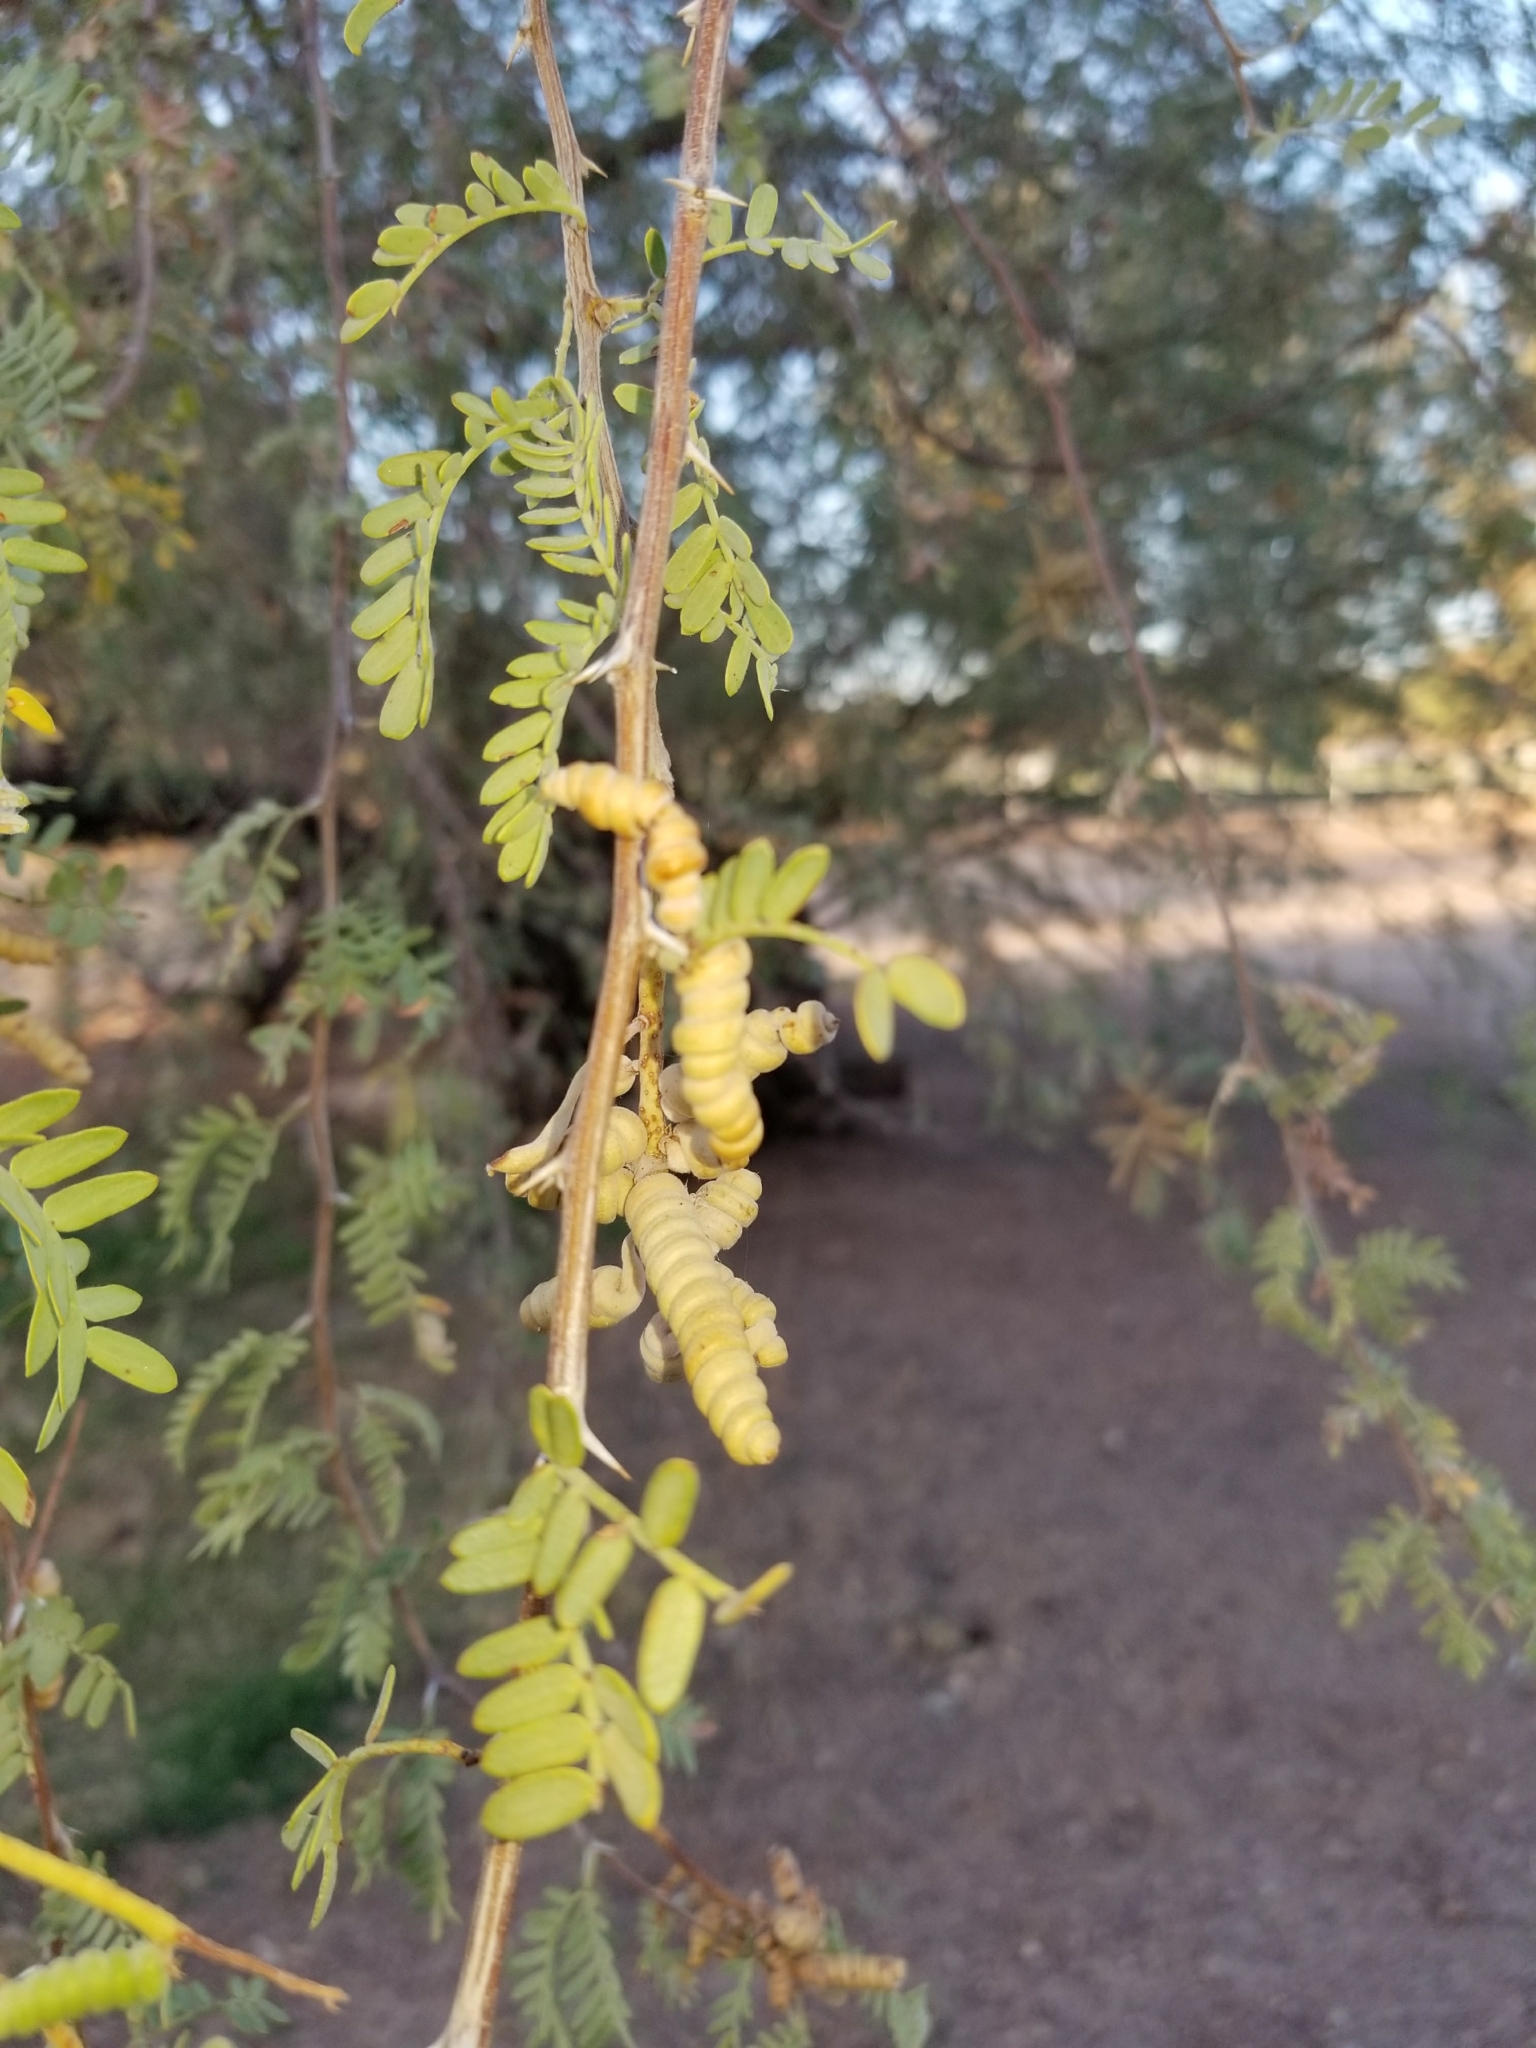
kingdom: Plantae
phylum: Tracheophyta
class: Magnoliopsida
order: Fabales
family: Fabaceae
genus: Prosopis
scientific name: Prosopis pubescens
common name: Screw-bean
